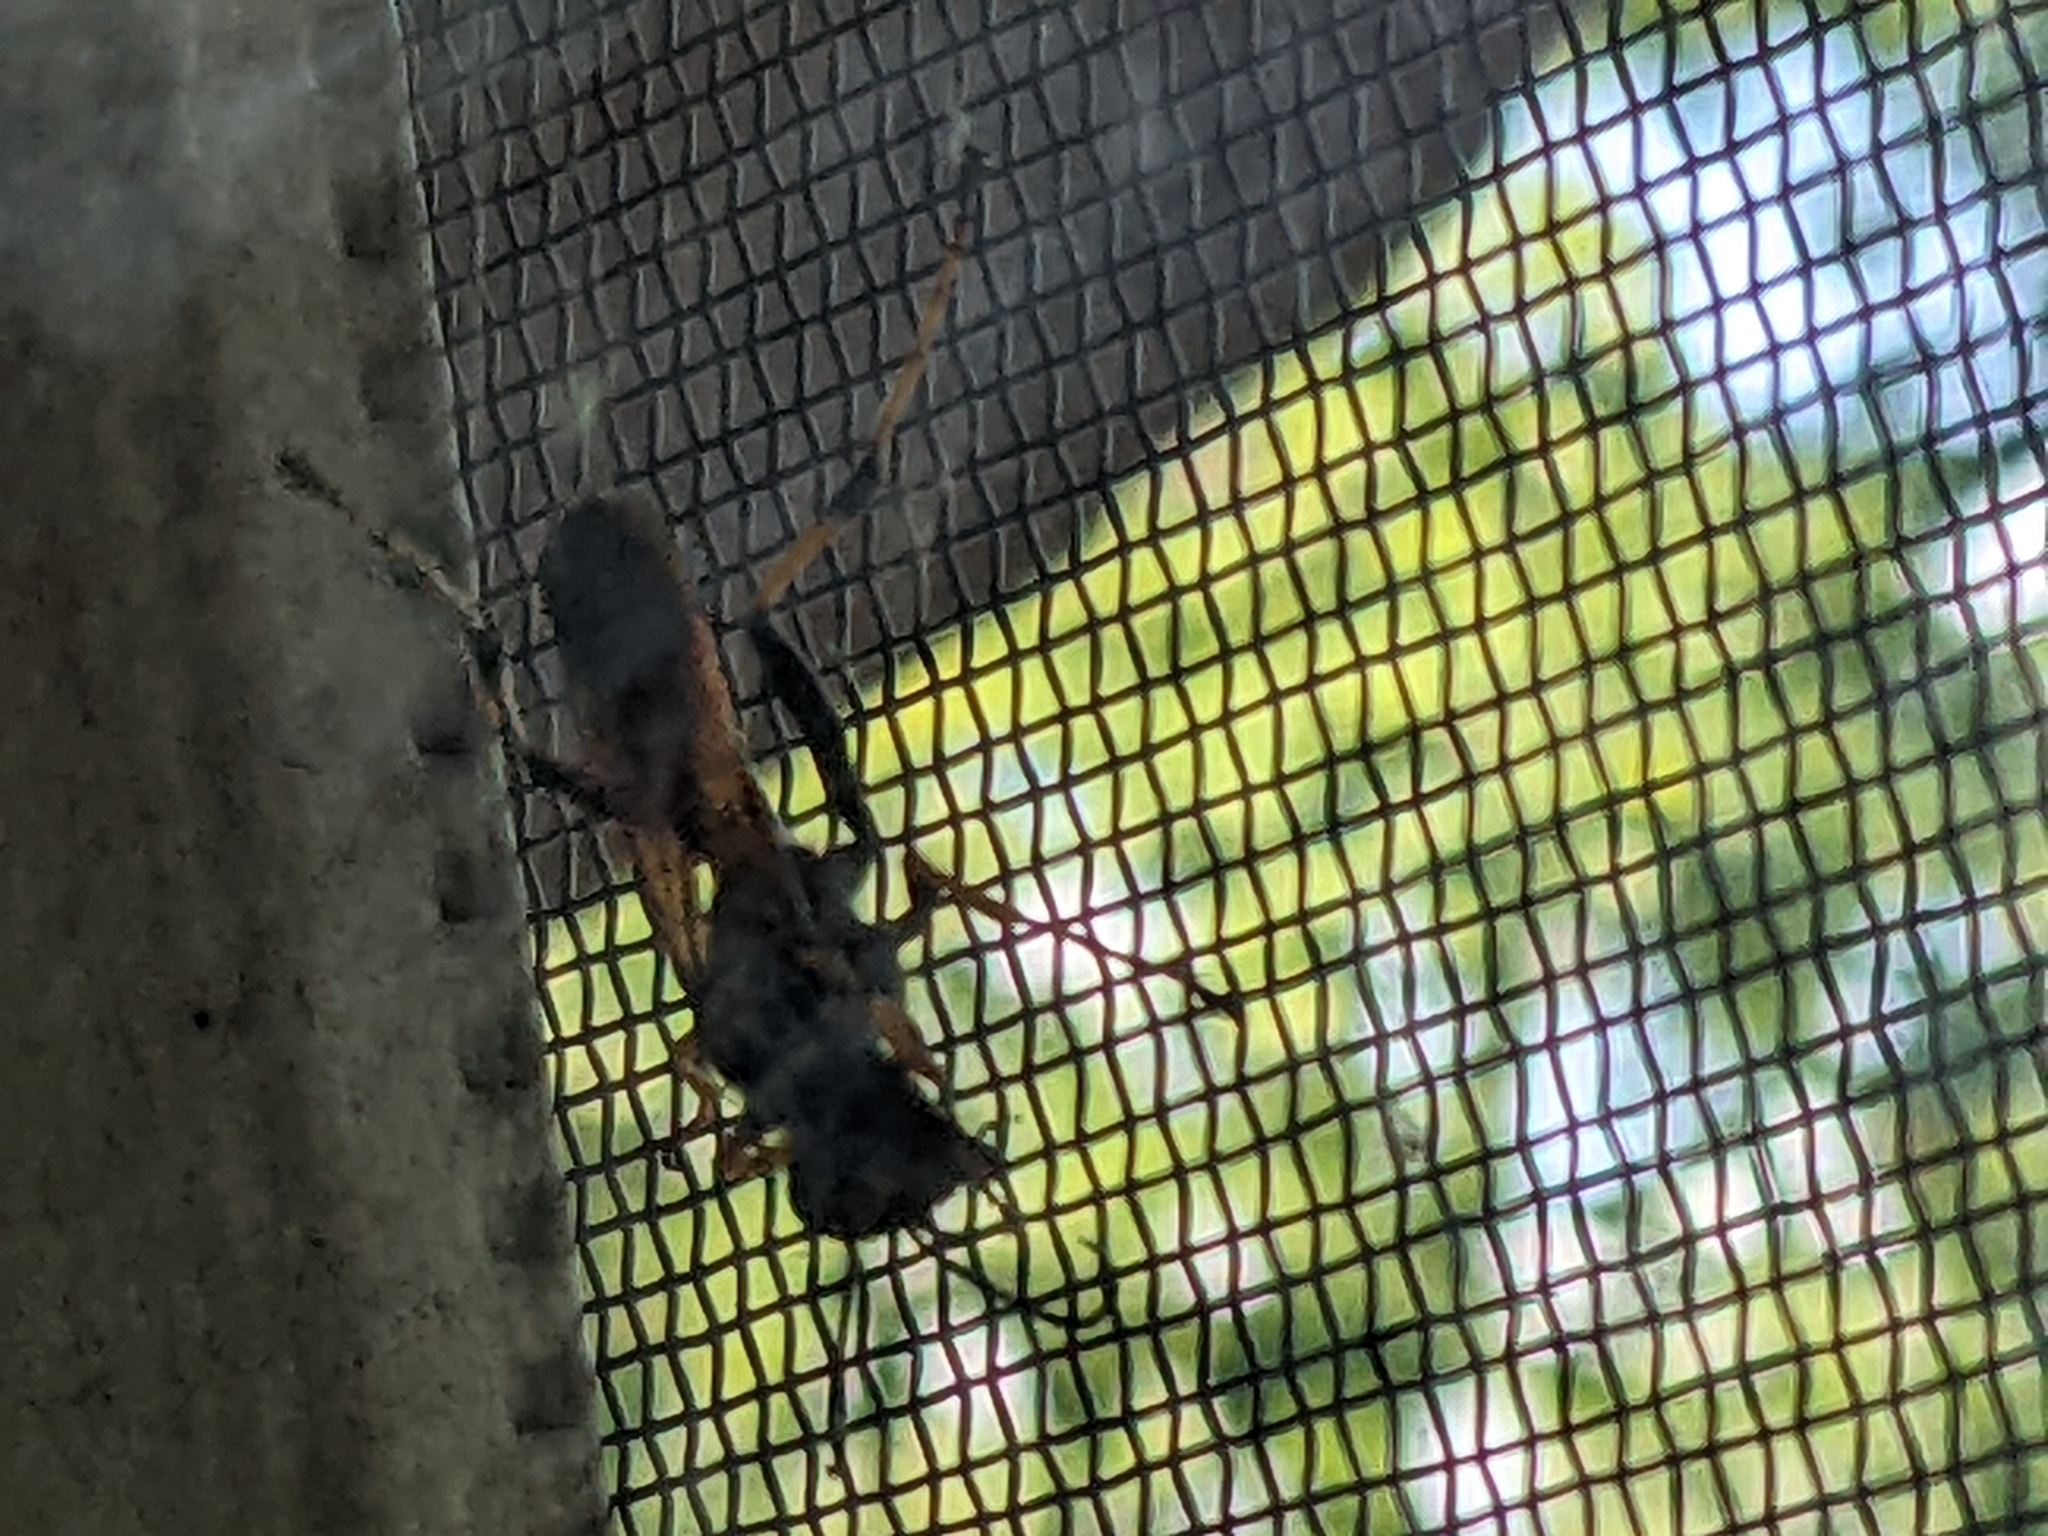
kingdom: Animalia
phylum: Arthropoda
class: Insecta
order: Hymenoptera
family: Sphecidae
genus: Sceliphron
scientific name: Sceliphron caementarium
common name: Mud dauber
